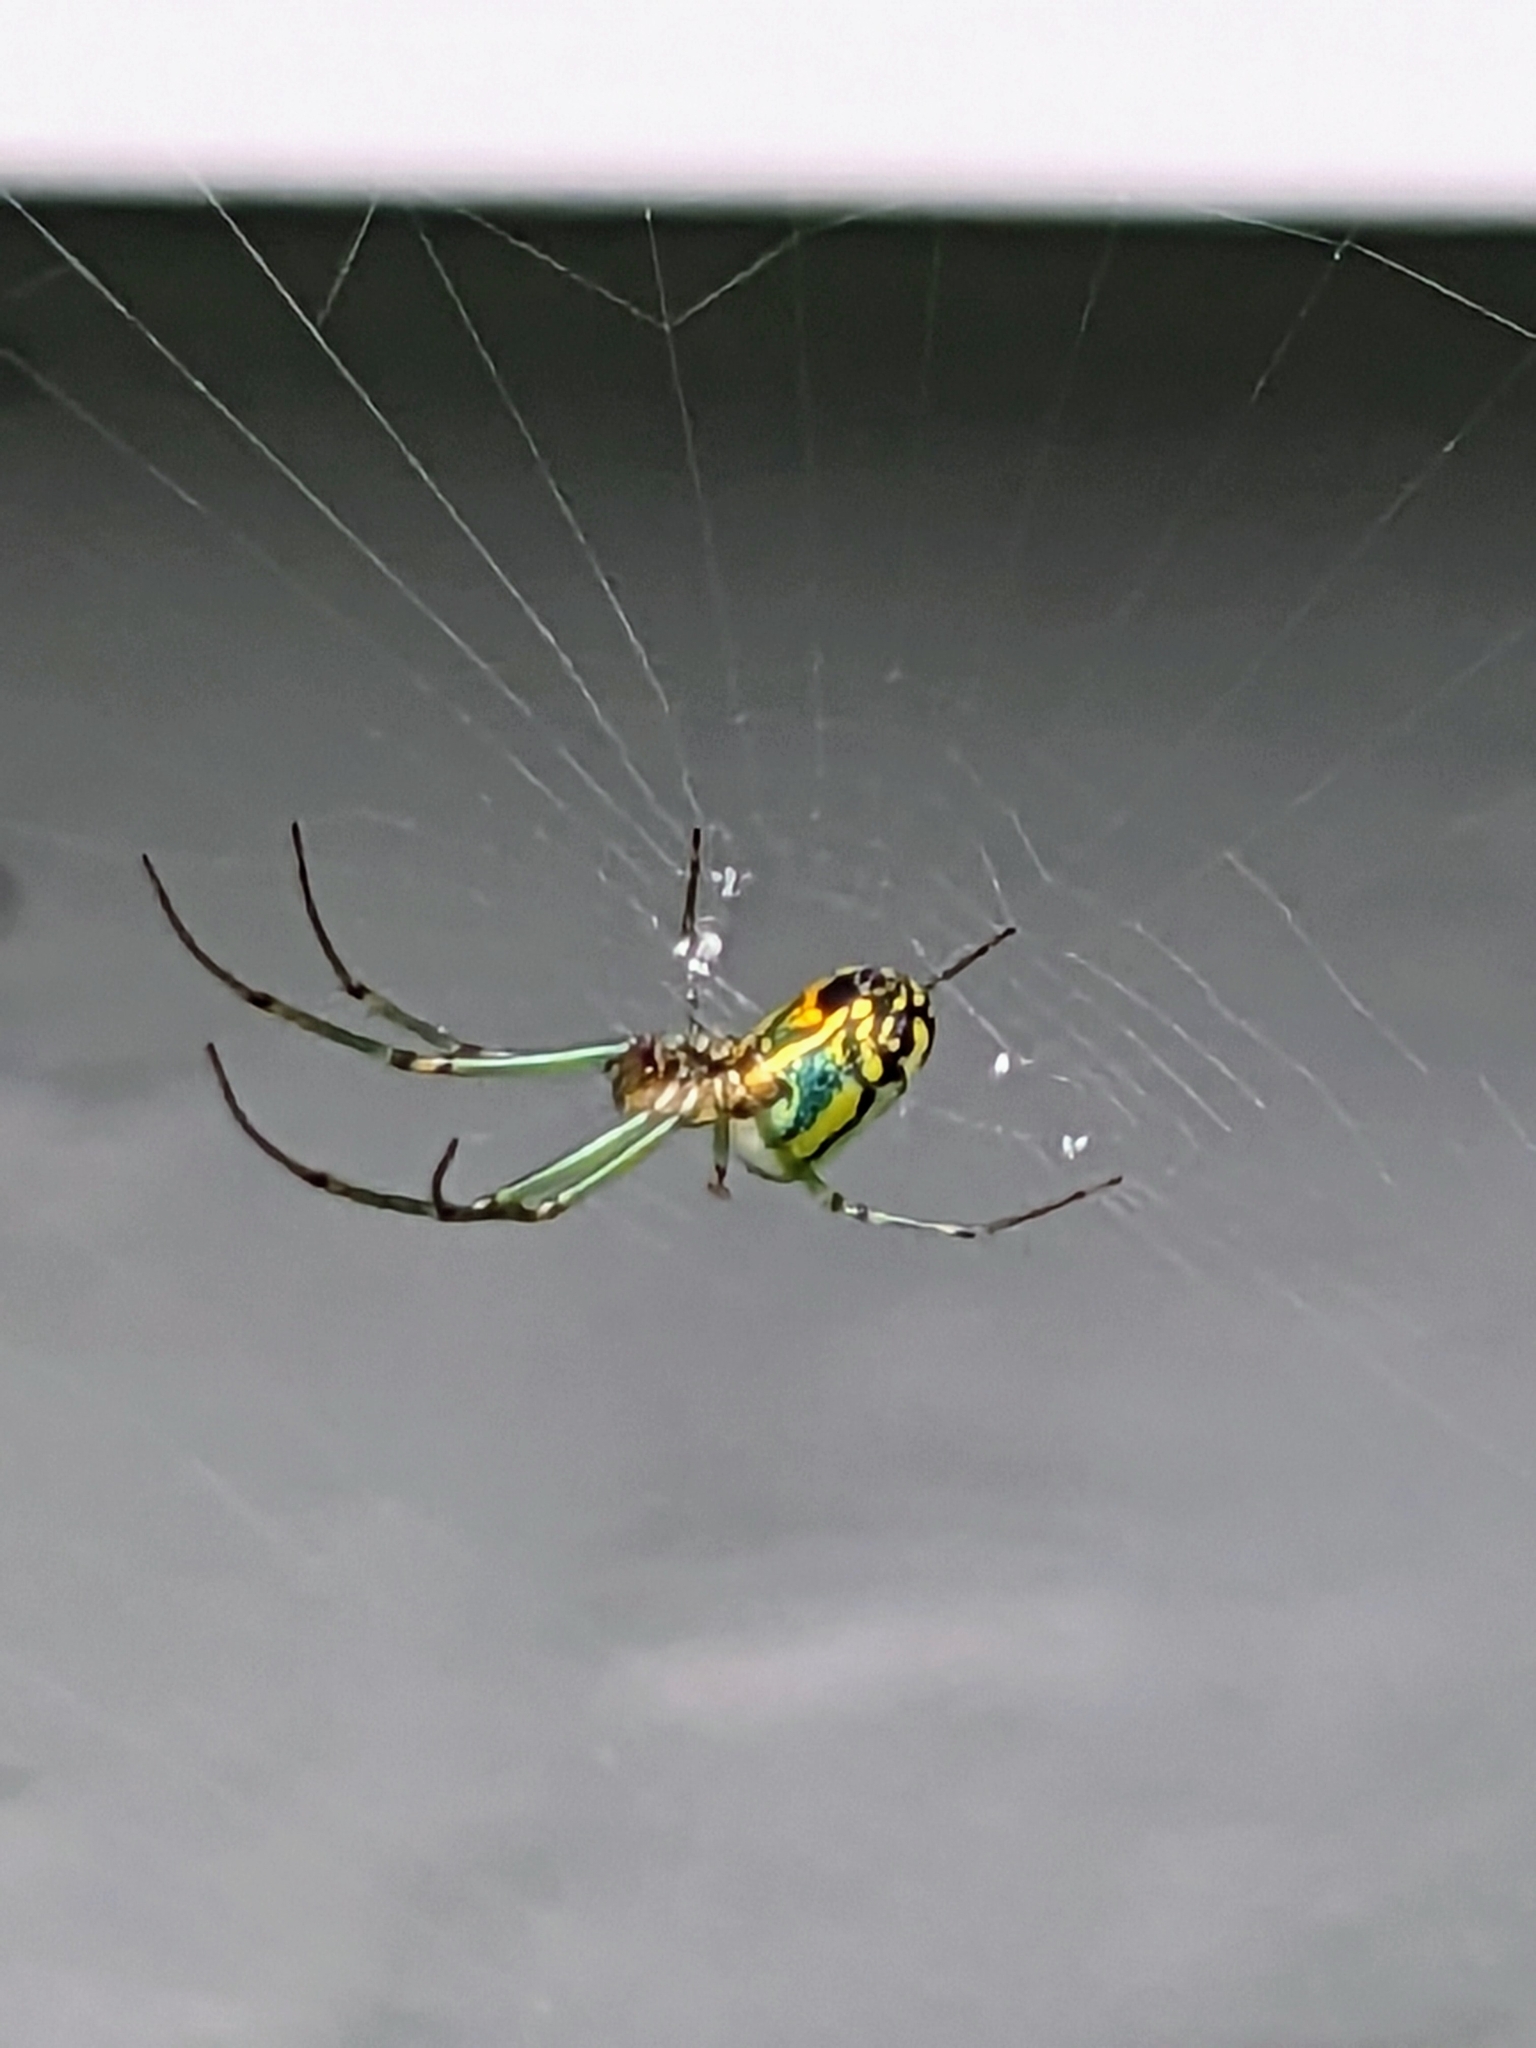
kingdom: Animalia
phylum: Arthropoda
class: Arachnida
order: Araneae
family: Tetragnathidae
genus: Leucauge
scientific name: Leucauge venusta
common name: Longjawed orb weavers
